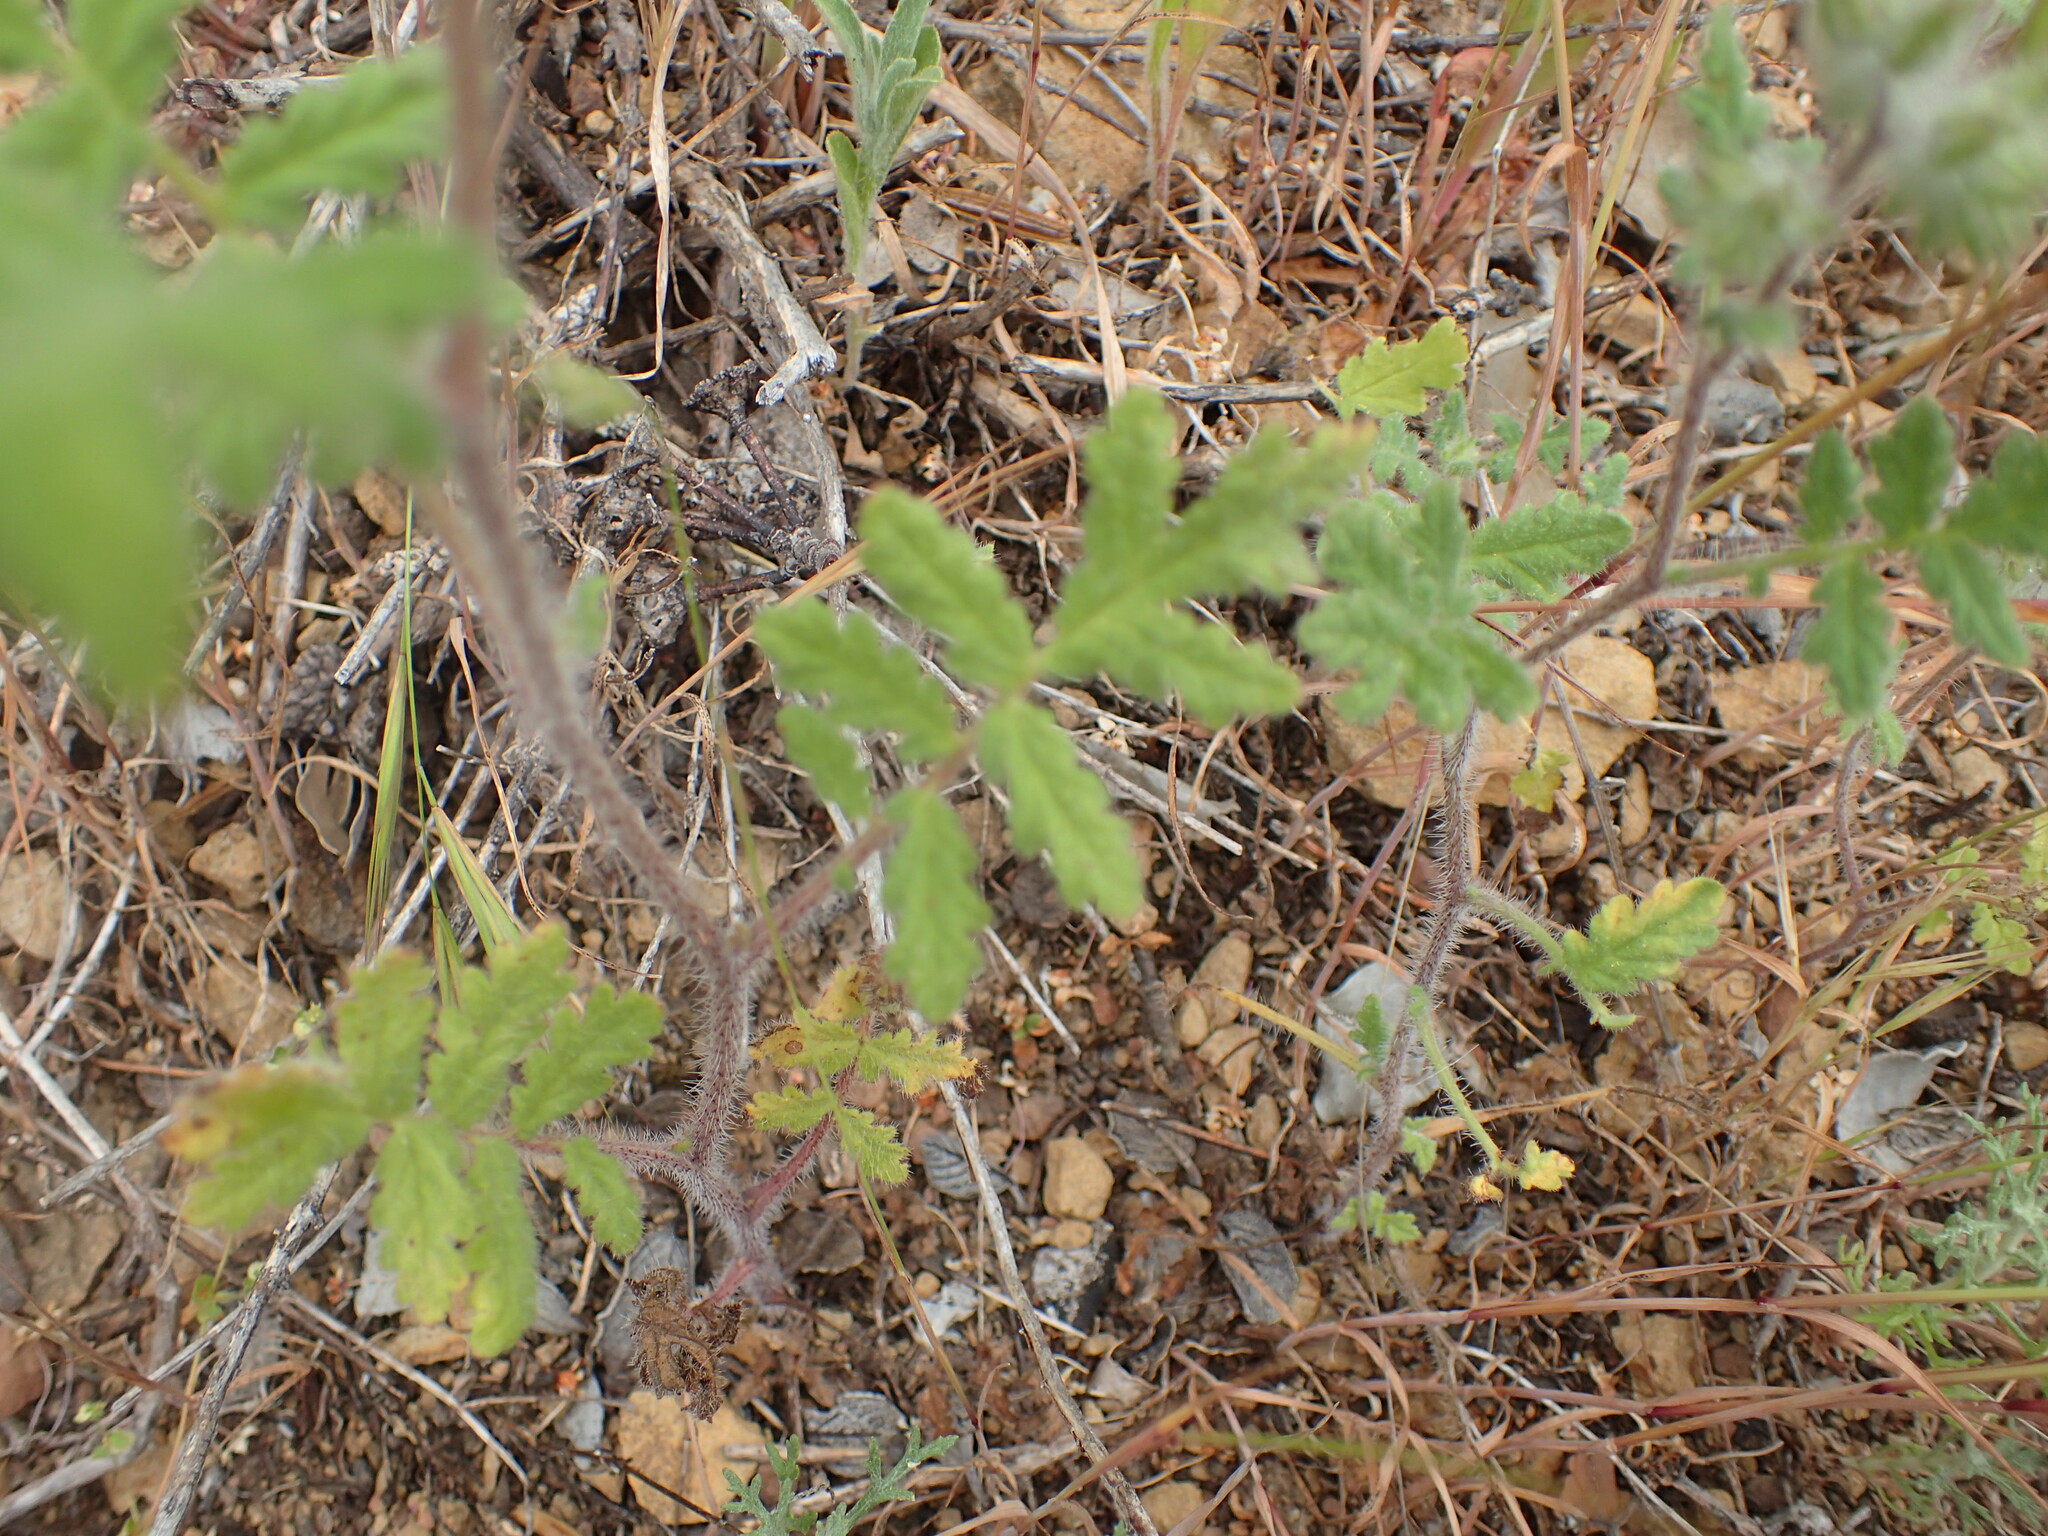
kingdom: Plantae
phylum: Tracheophyta
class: Magnoliopsida
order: Boraginales
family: Hydrophyllaceae
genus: Phacelia
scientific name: Phacelia cicutaria
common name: Caterpillar phacelia
